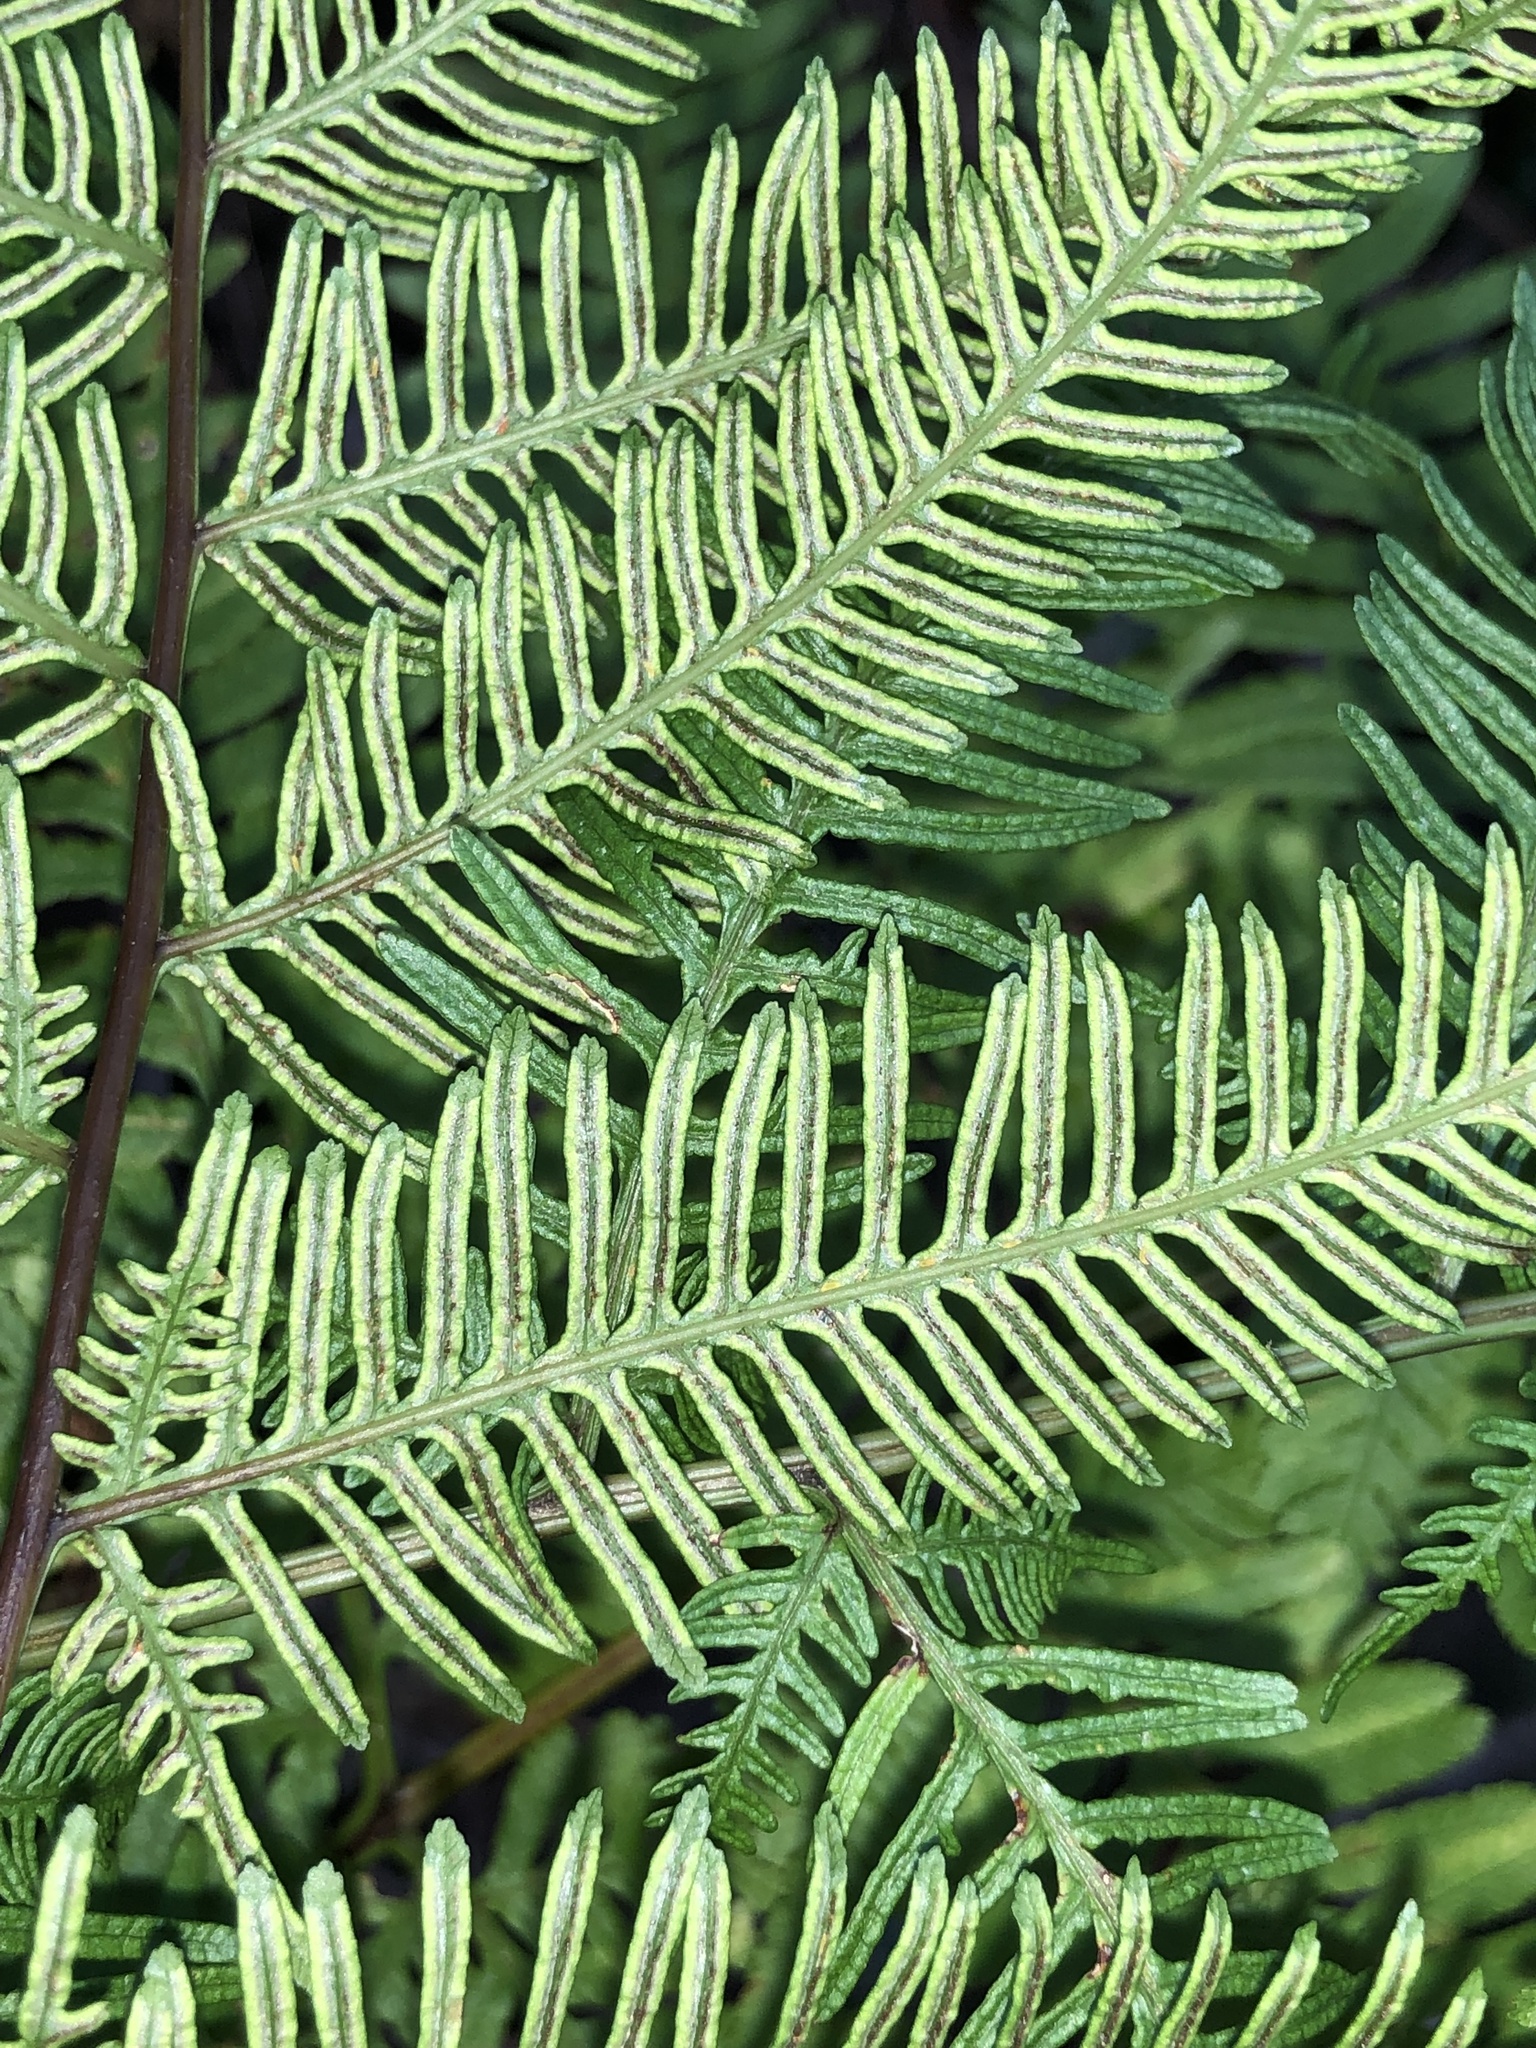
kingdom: Plantae
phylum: Tracheophyta
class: Polypodiopsida
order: Polypodiales
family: Pteridaceae
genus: Pteris
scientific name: Pteris tremula
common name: Australian brake
